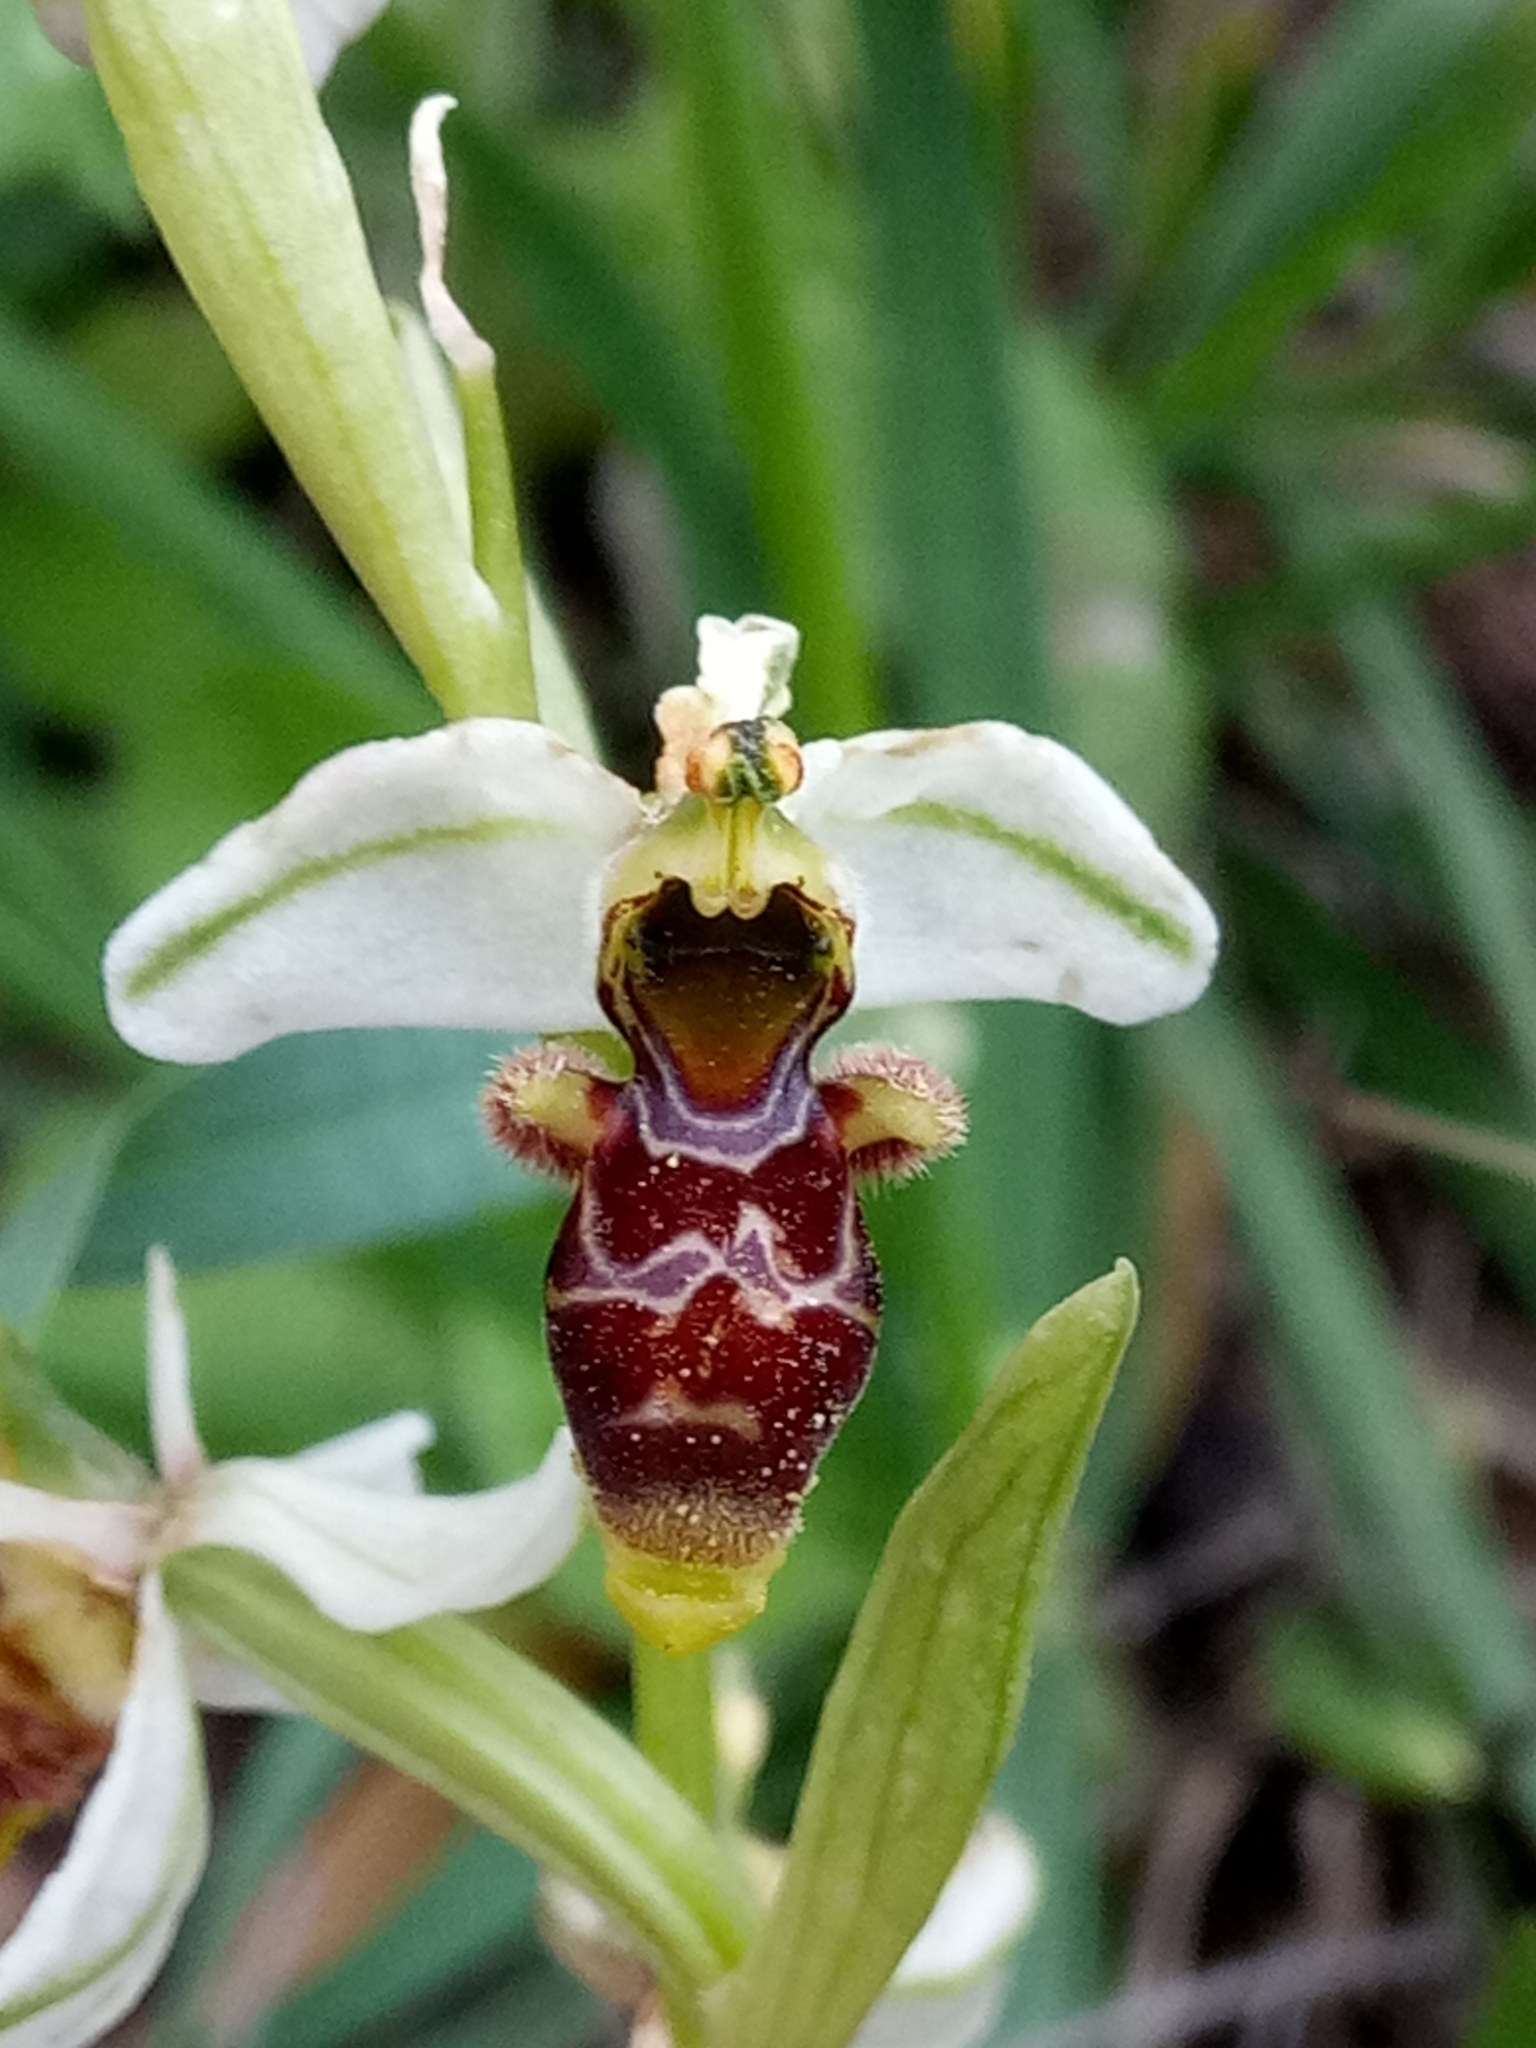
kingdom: Plantae
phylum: Tracheophyta
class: Liliopsida
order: Asparagales
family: Orchidaceae
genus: Ophrys
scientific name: Ophrys scolopax
